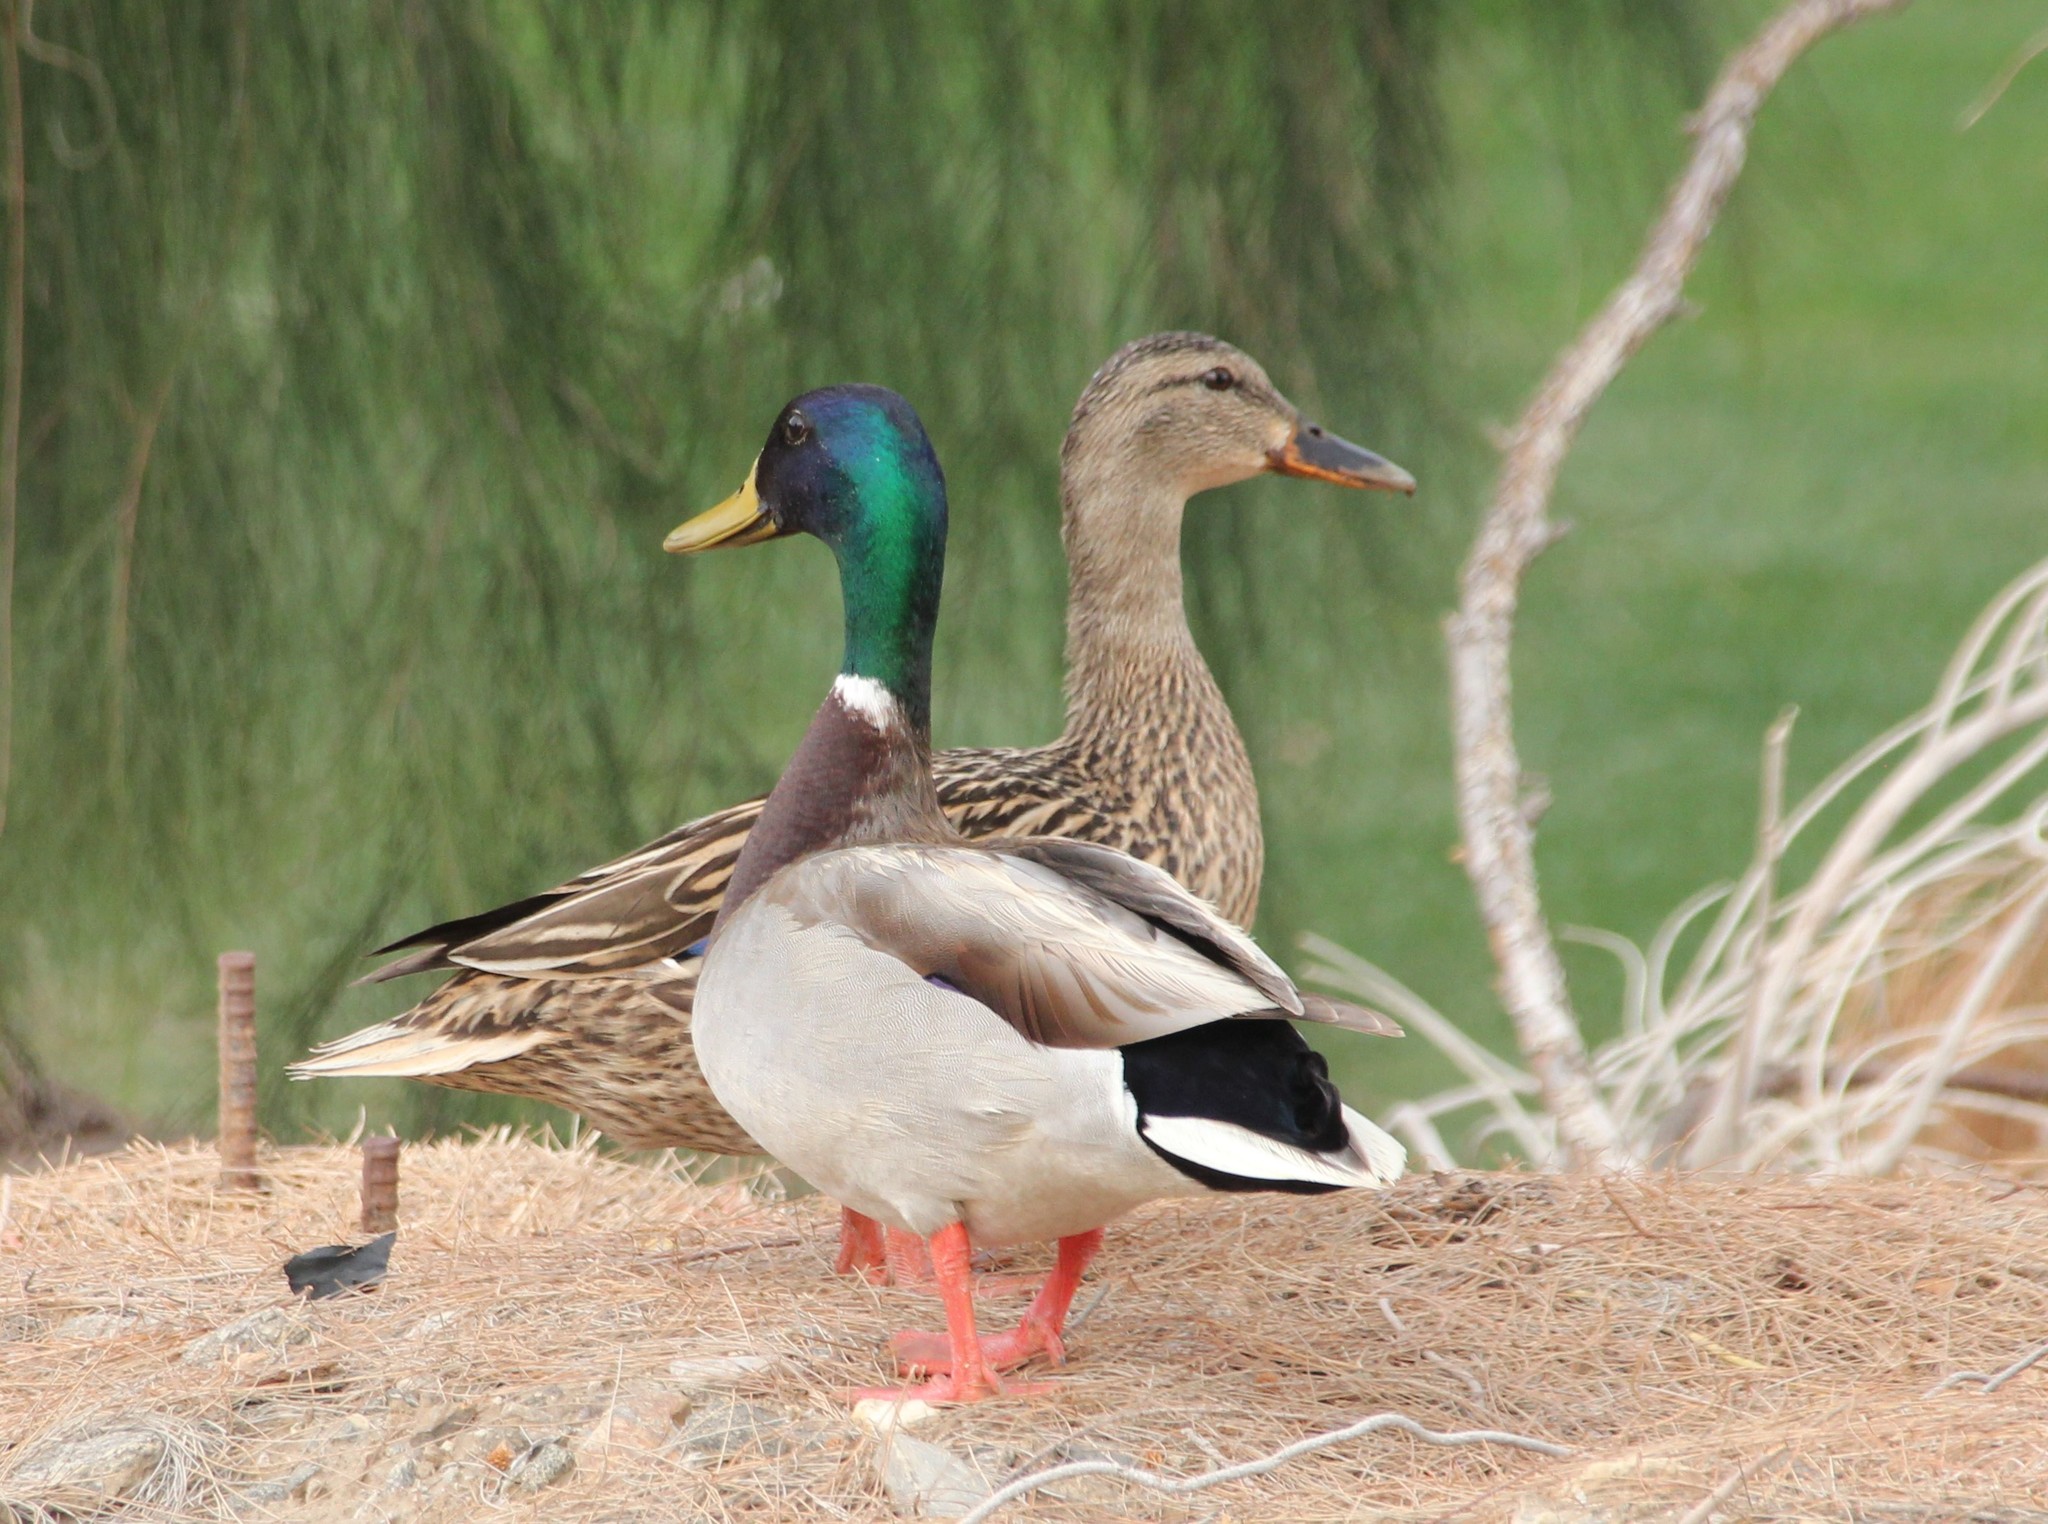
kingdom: Animalia
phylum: Chordata
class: Aves
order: Anseriformes
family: Anatidae
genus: Anas
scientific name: Anas platyrhynchos
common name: Mallard
